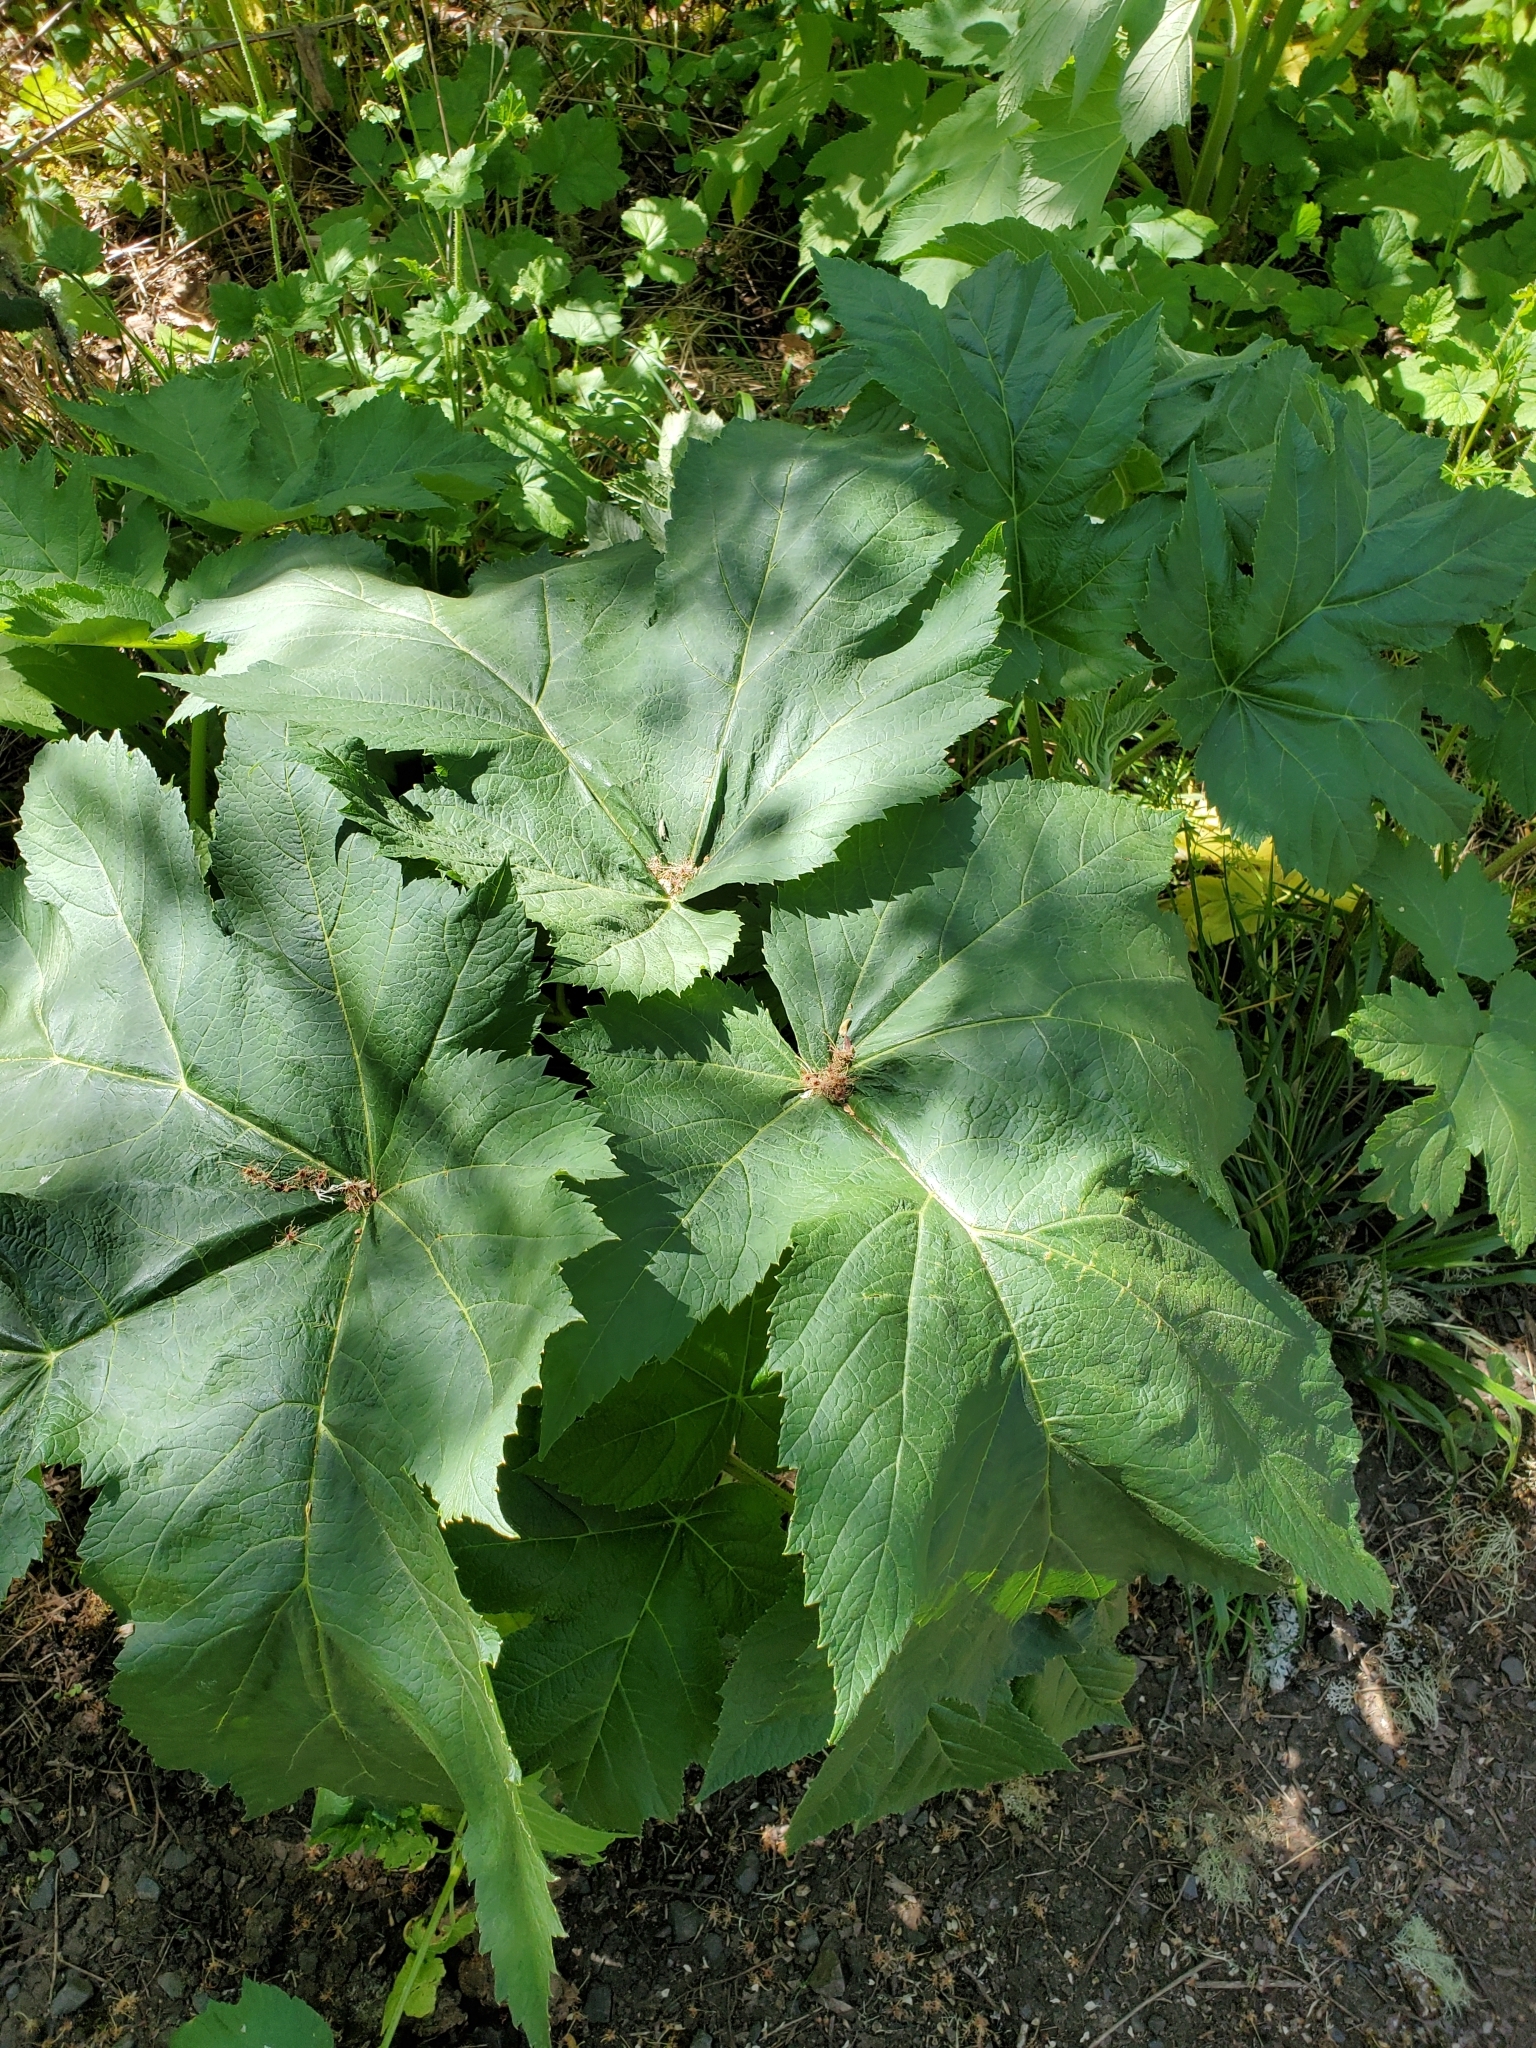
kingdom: Plantae
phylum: Tracheophyta
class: Magnoliopsida
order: Apiales
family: Apiaceae
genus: Heracleum
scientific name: Heracleum maximum
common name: American cow parsnip
